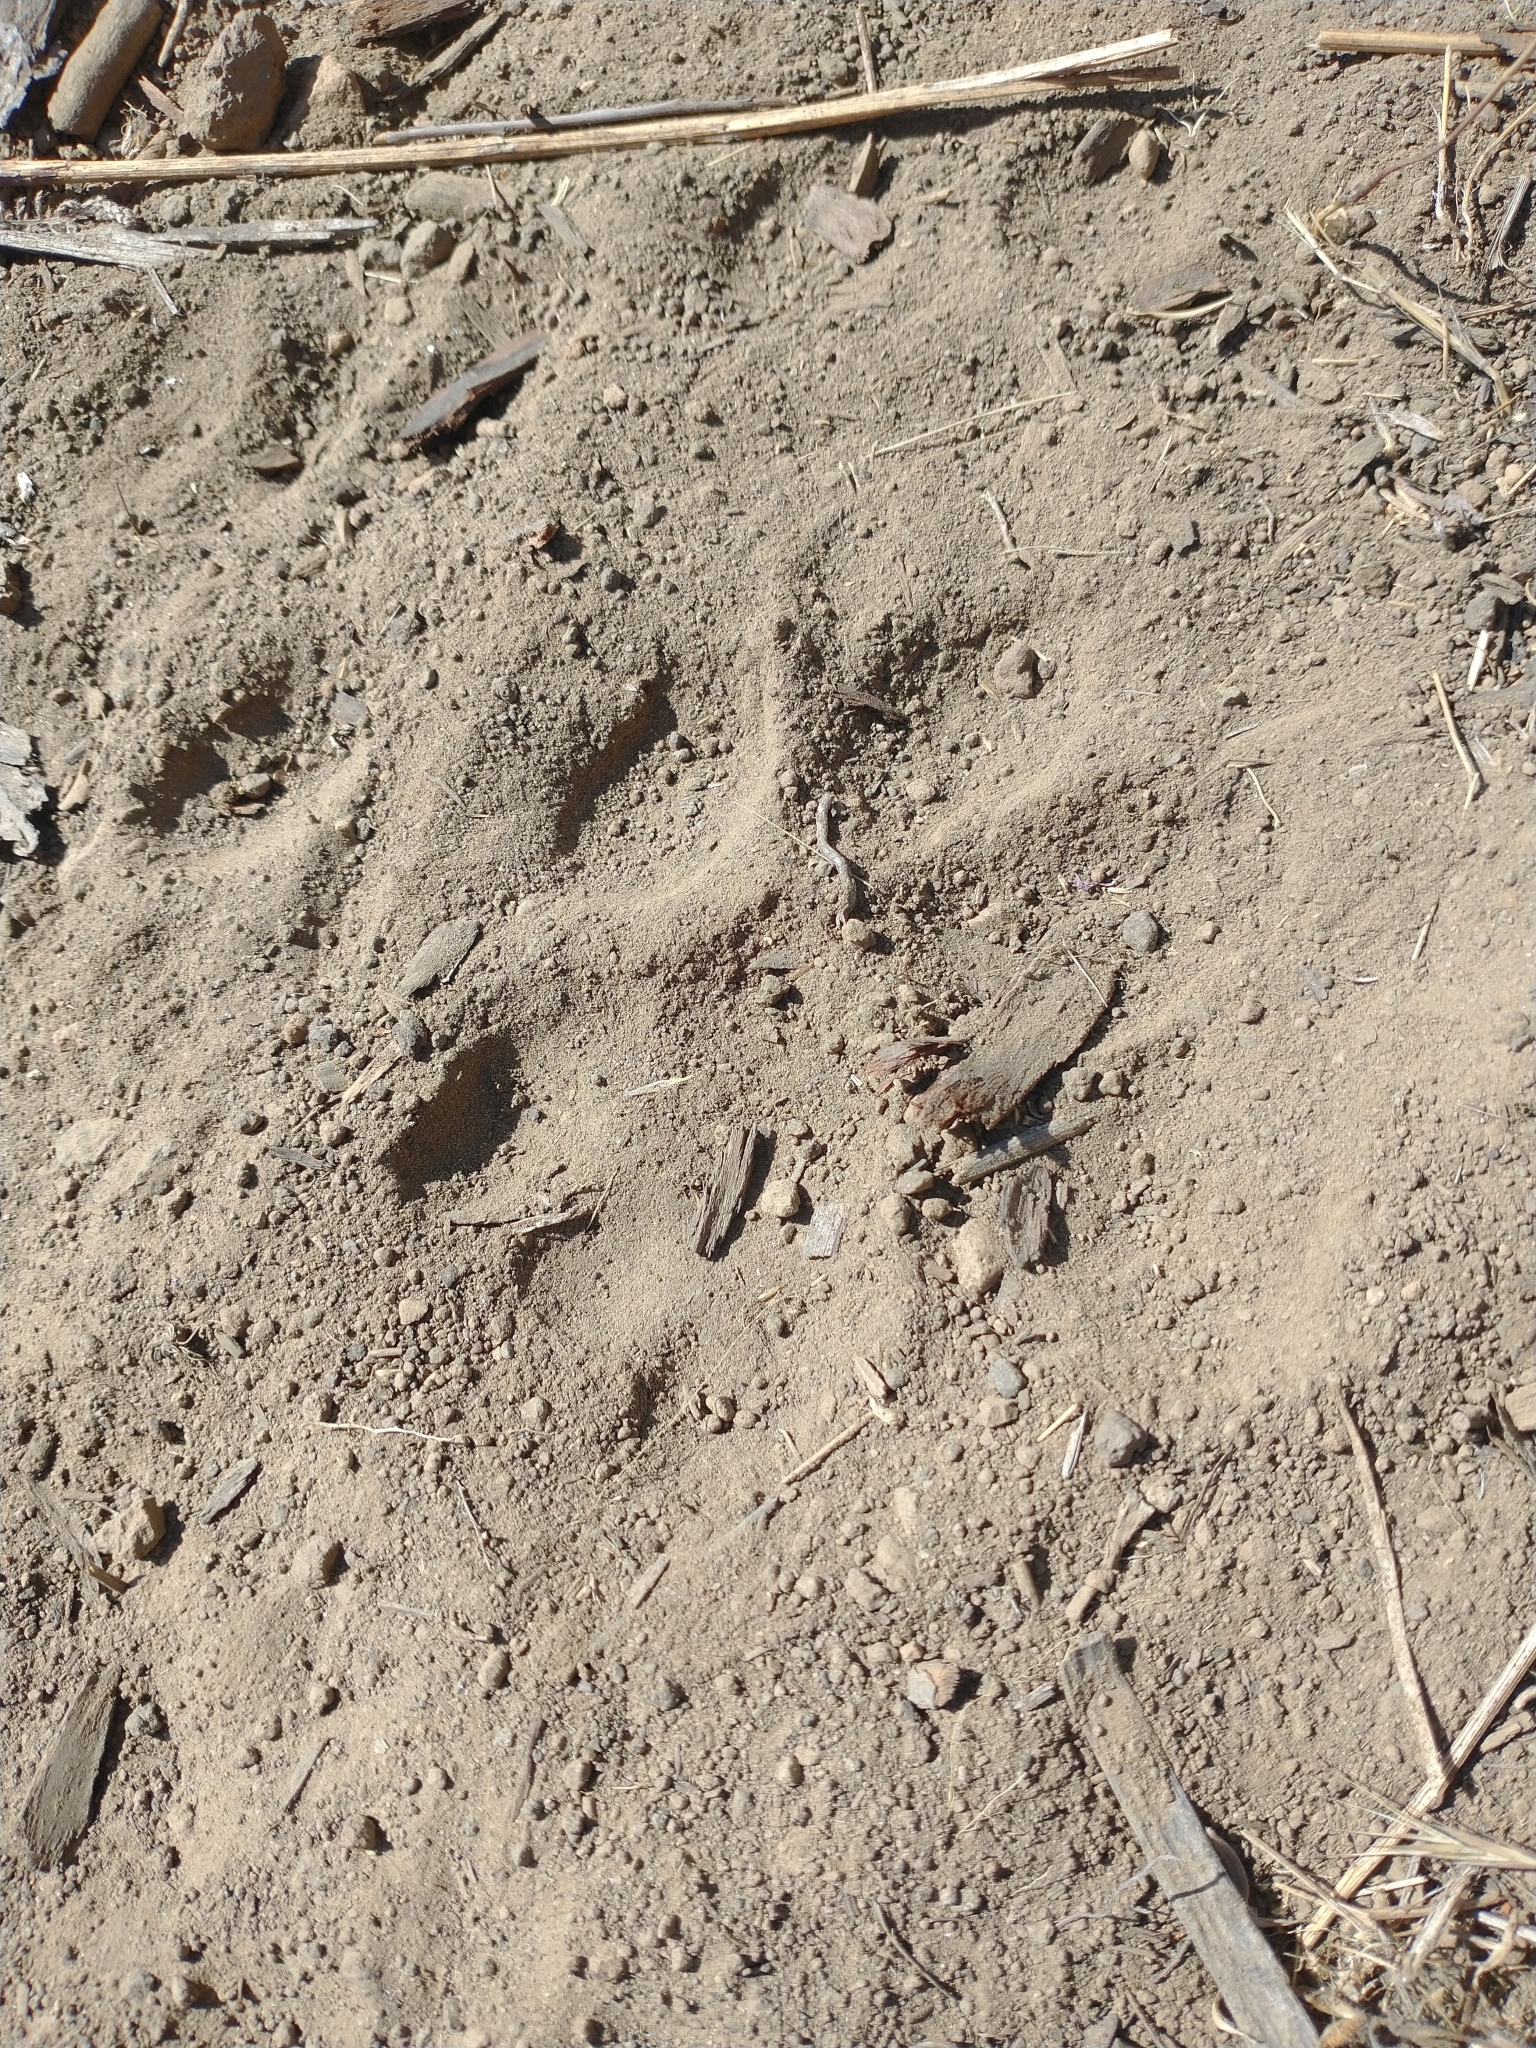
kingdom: Animalia
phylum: Chordata
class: Mammalia
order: Carnivora
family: Felidae
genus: Puma
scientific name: Puma concolor
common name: Puma
